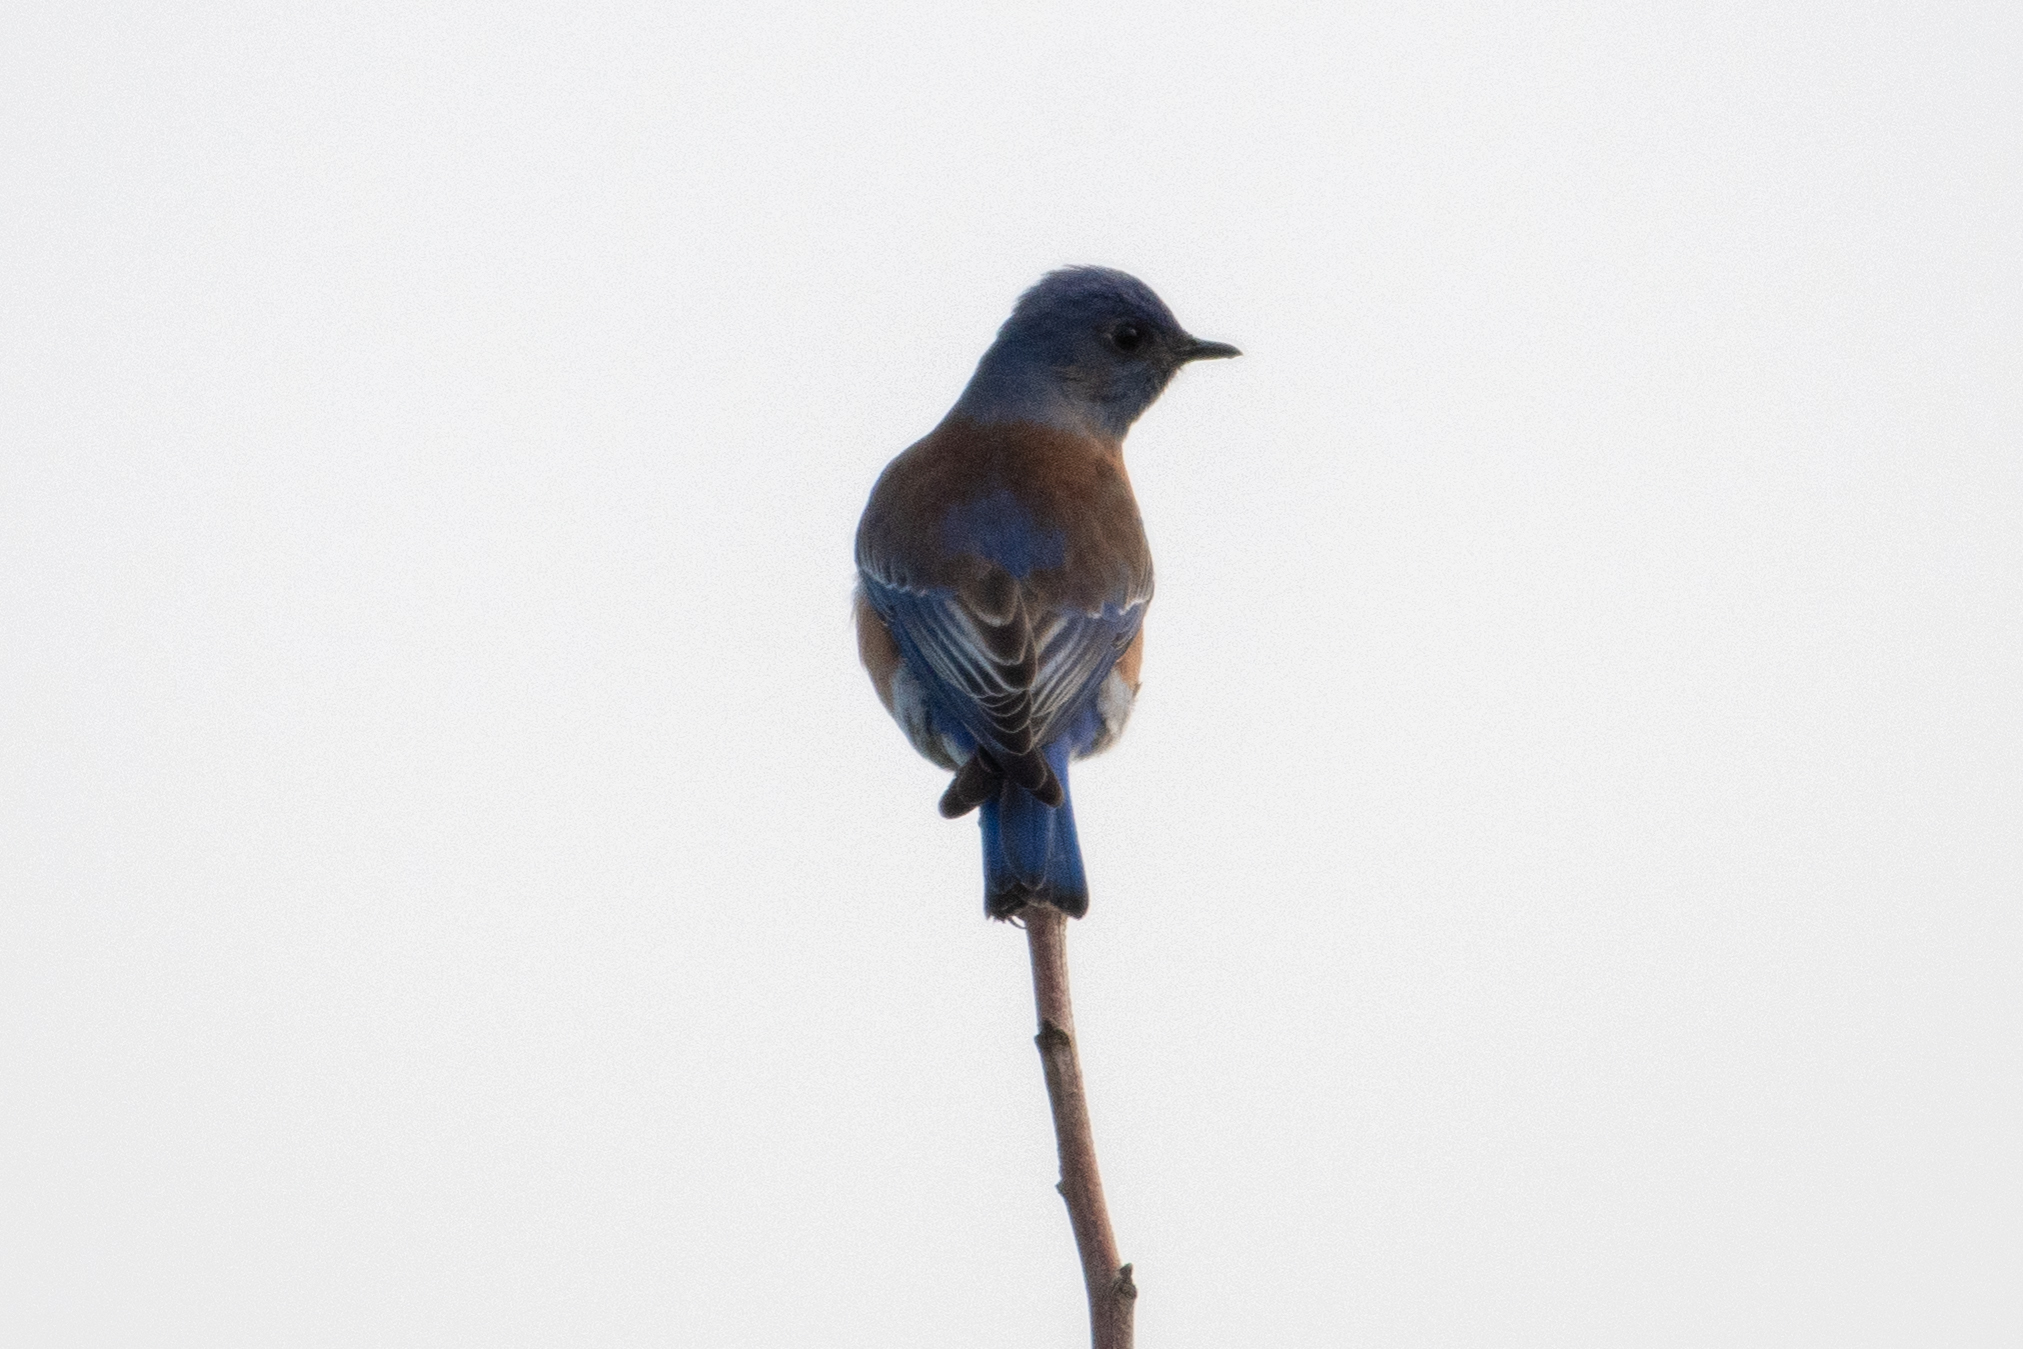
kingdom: Animalia
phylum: Chordata
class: Aves
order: Passeriformes
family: Turdidae
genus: Sialia
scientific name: Sialia mexicana
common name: Western bluebird
